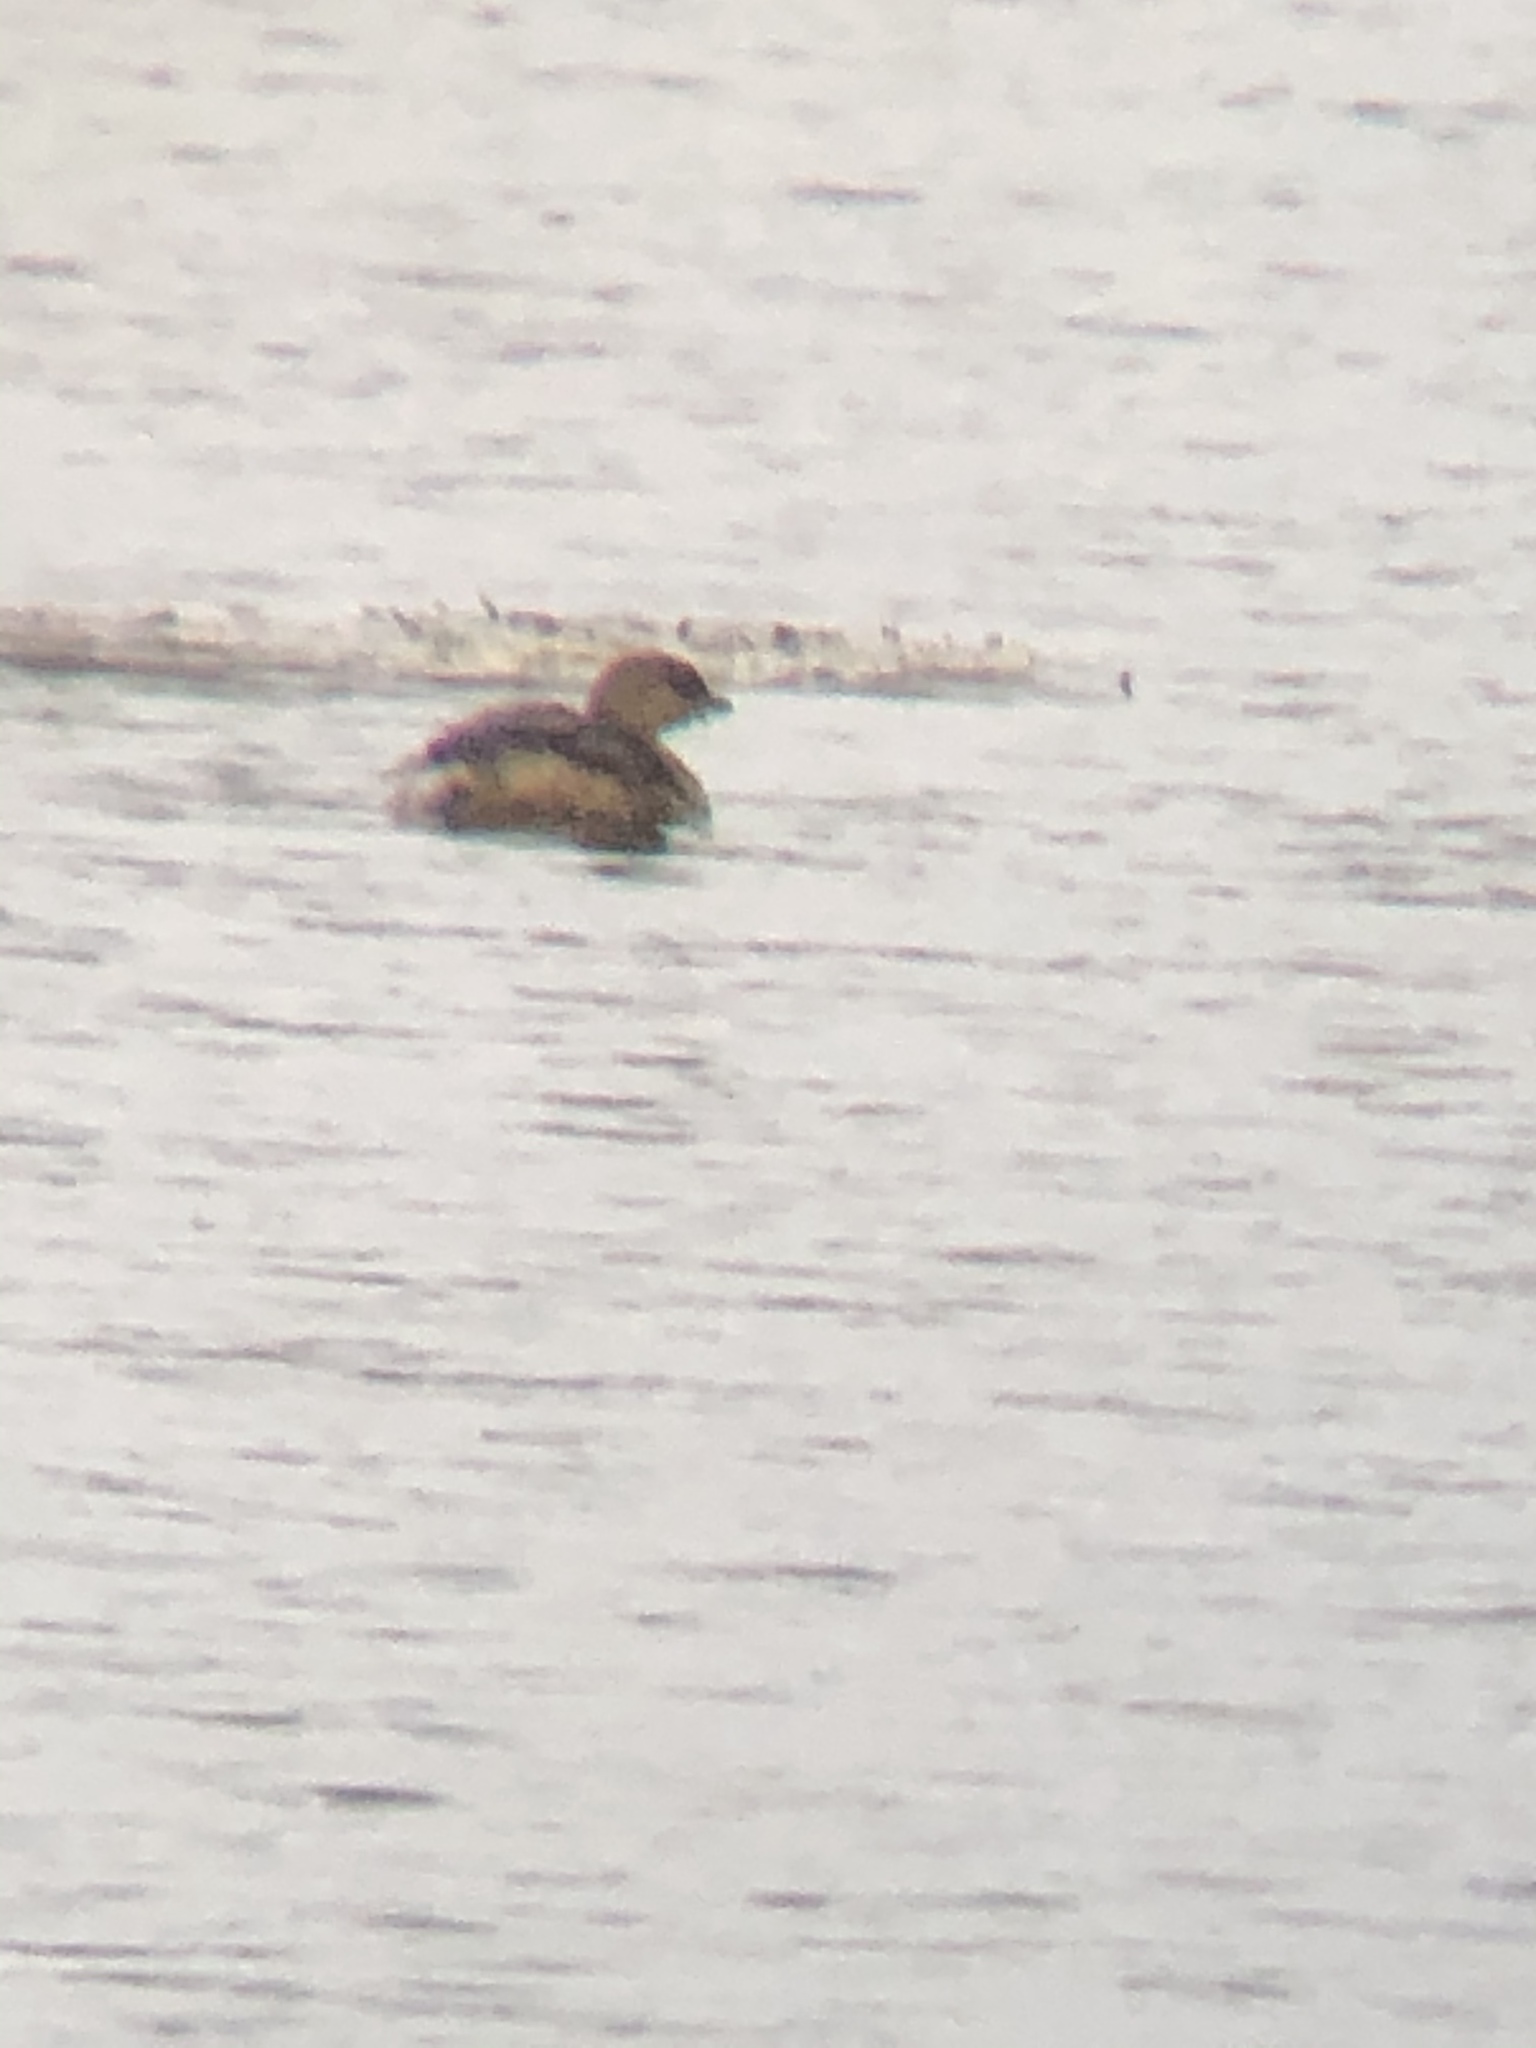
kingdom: Animalia
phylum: Chordata
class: Aves
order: Podicipediformes
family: Podicipedidae
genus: Podilymbus
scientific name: Podilymbus podiceps
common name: Pied-billed grebe
